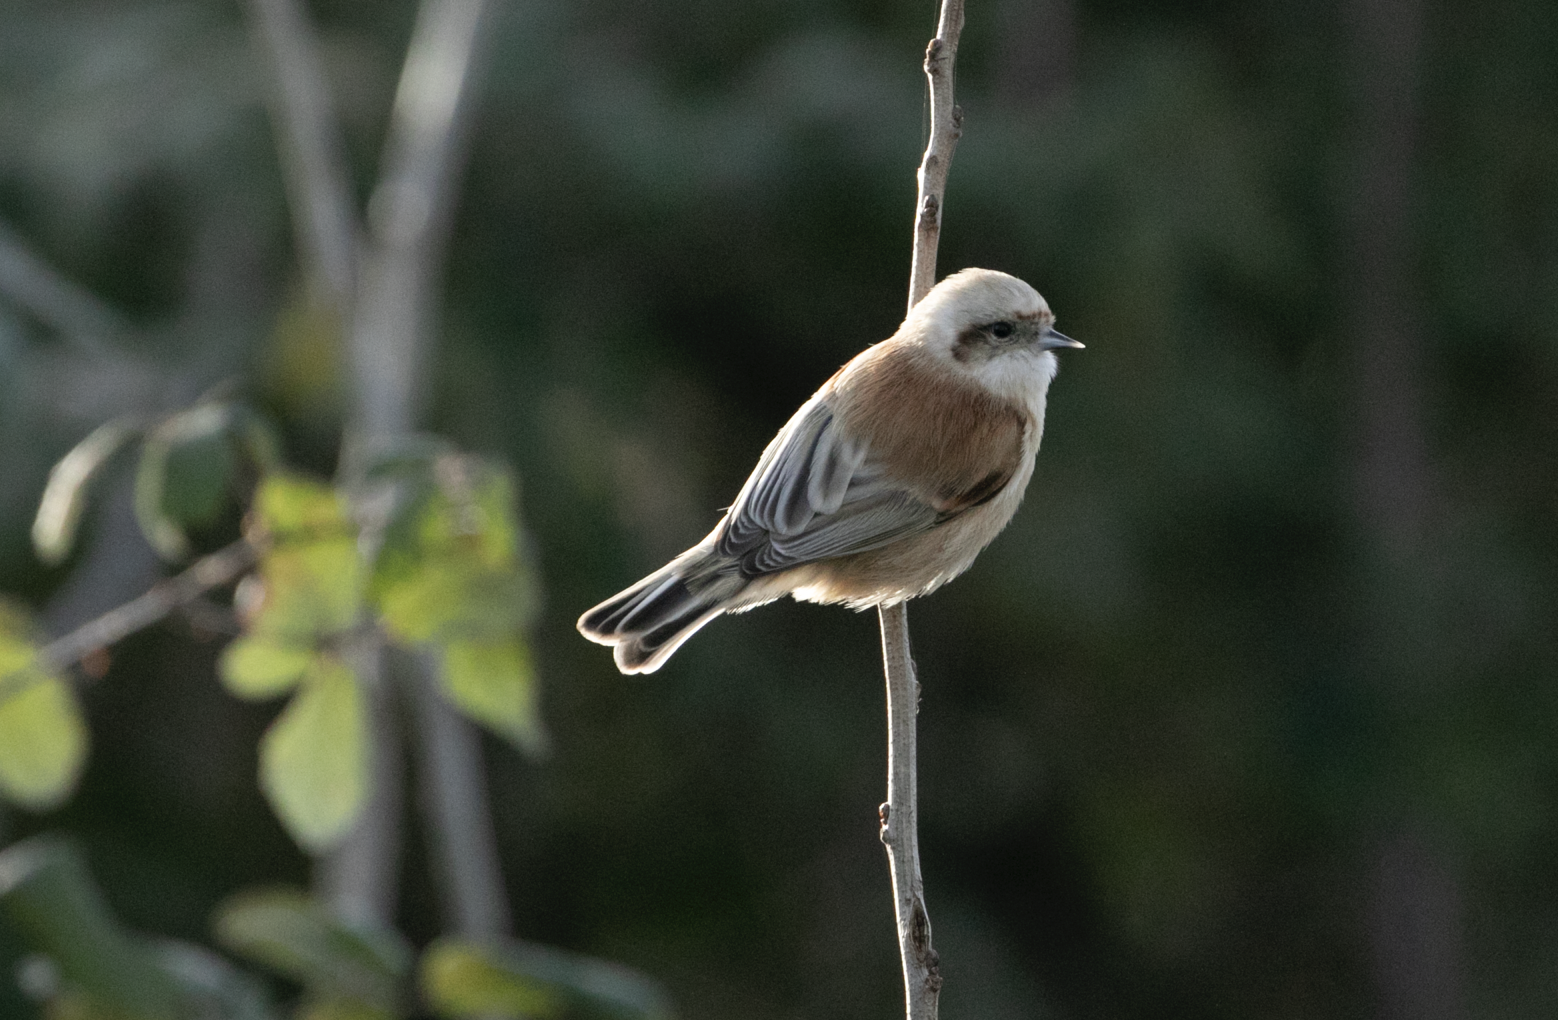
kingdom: Animalia
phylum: Chordata
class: Aves
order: Passeriformes
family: Remizidae
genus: Remiz
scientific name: Remiz pendulinus
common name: Eurasian penduline tit
